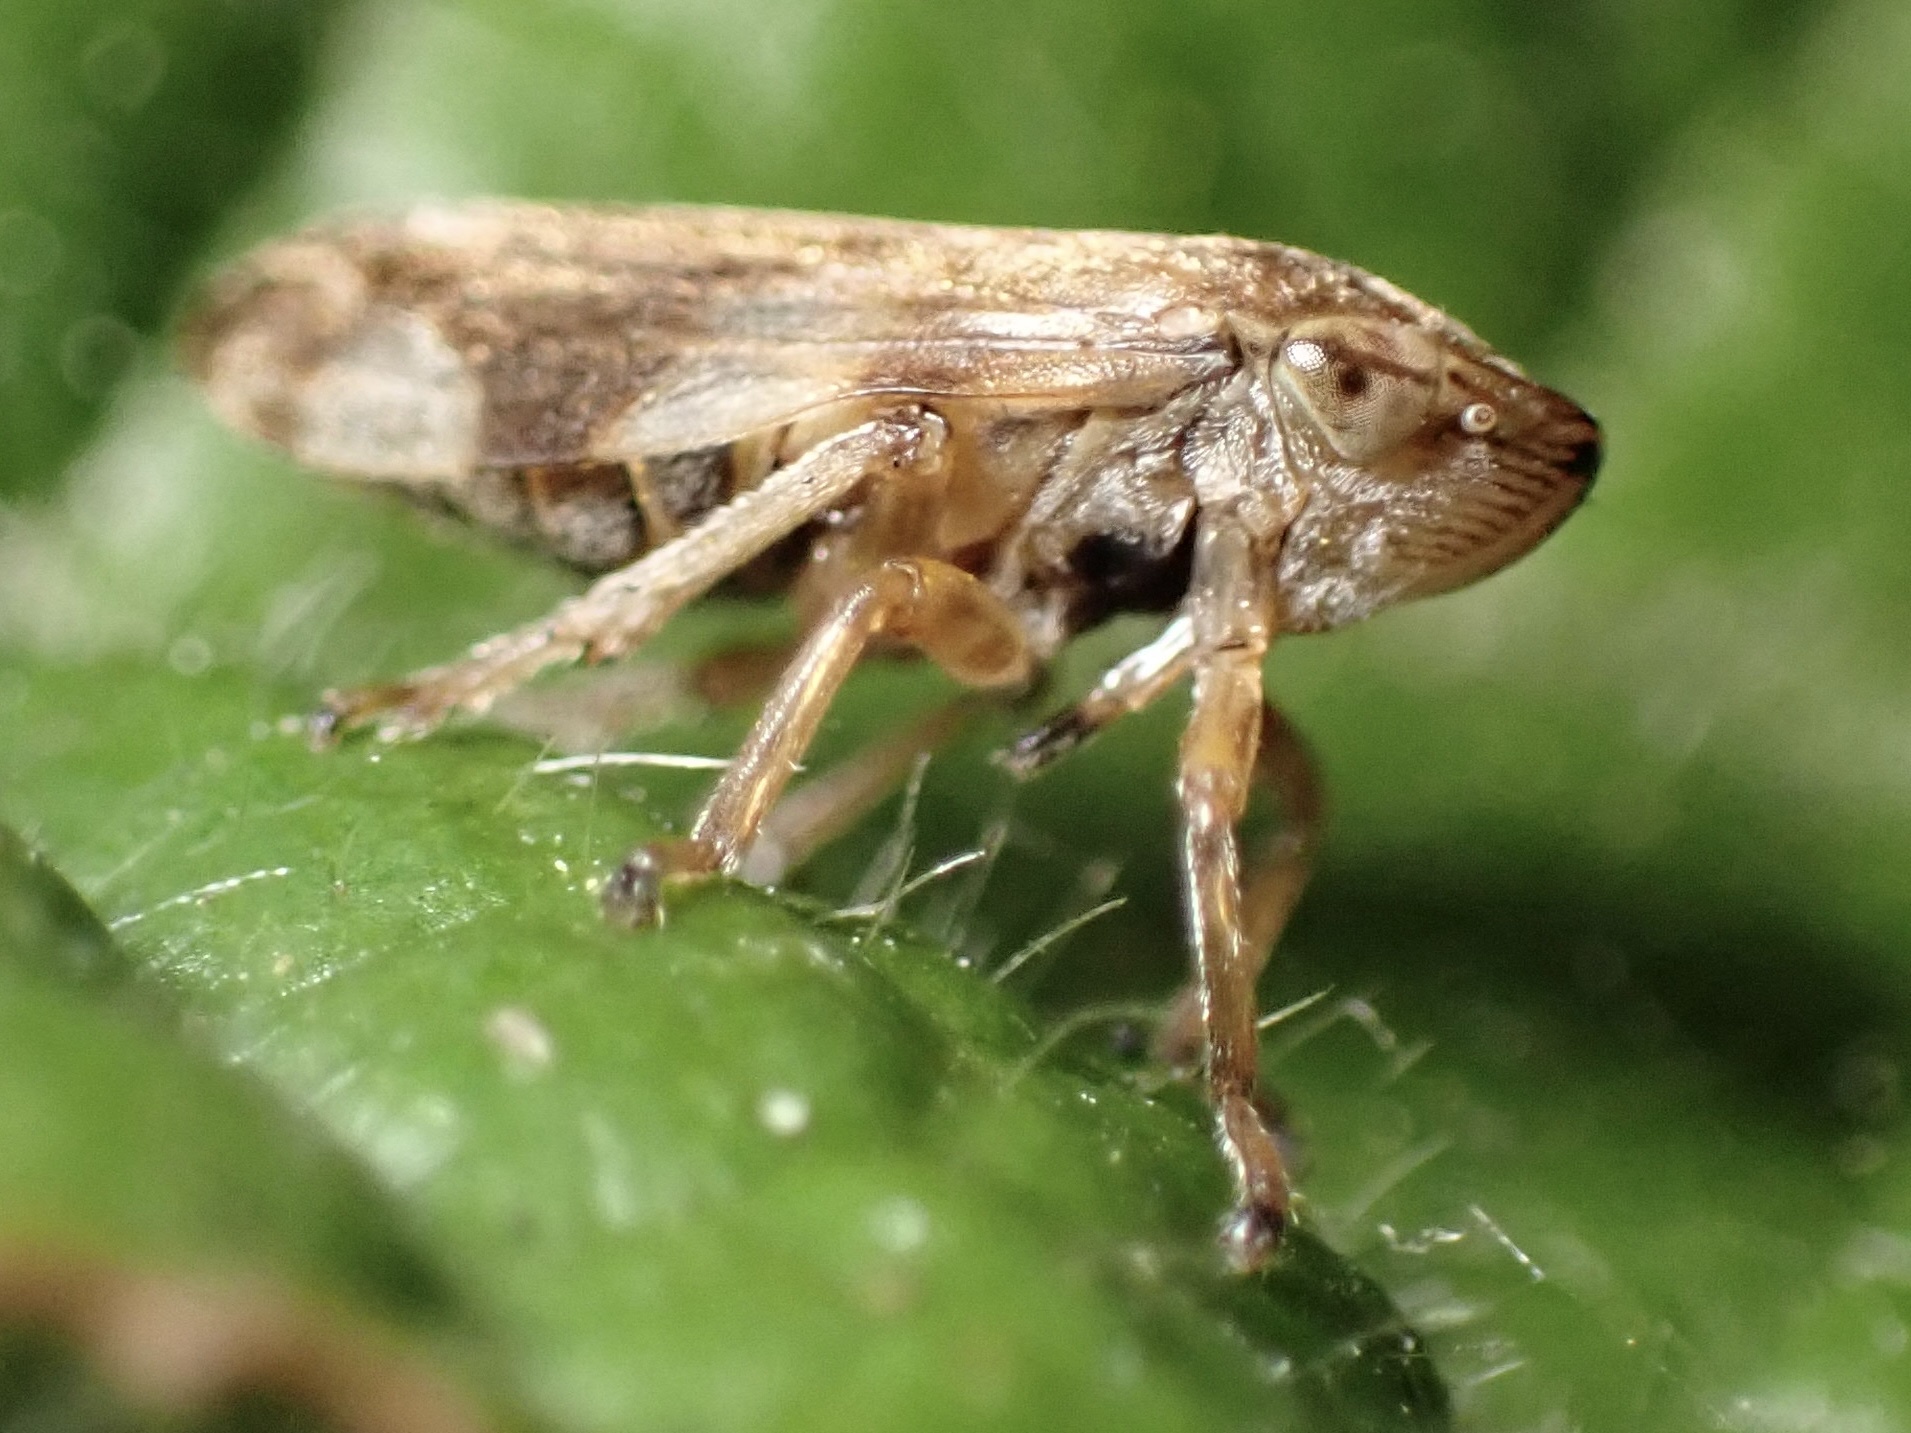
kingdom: Animalia
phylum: Arthropoda
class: Insecta
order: Hemiptera
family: Aphrophoridae
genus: Philaenus
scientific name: Philaenus spumarius
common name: Meadow spittlebug
